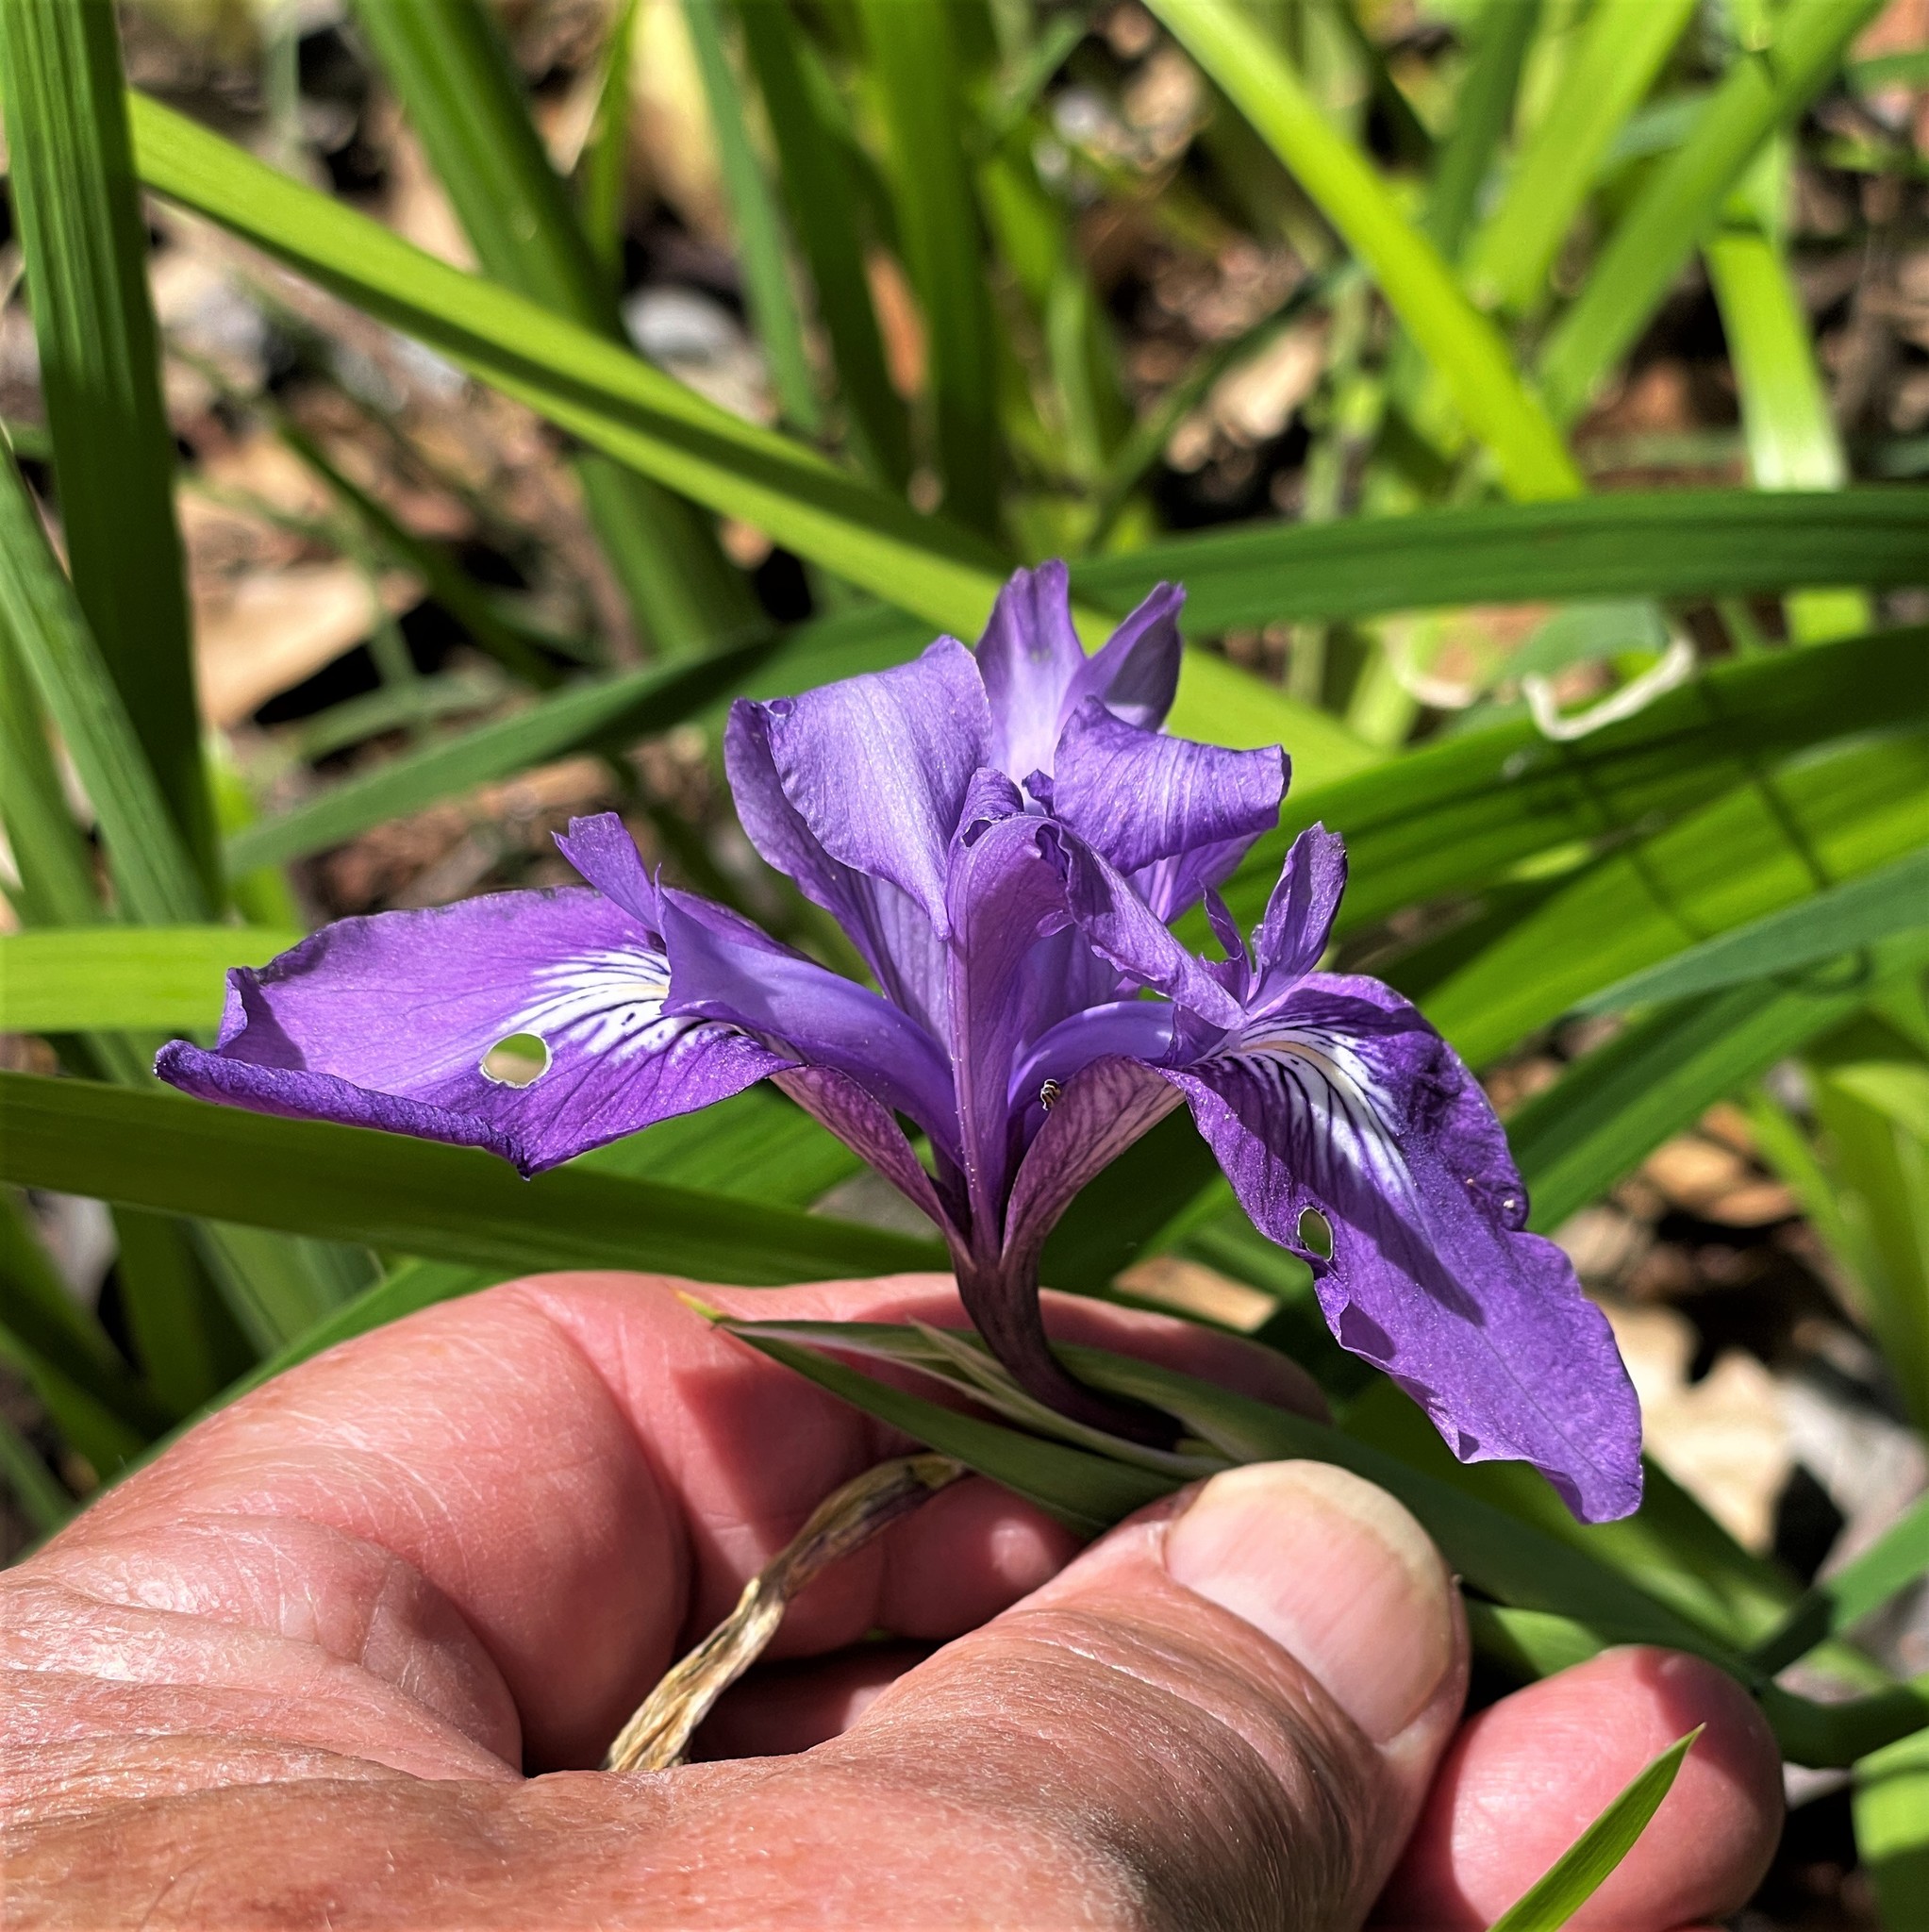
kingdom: Plantae
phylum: Tracheophyta
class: Liliopsida
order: Asparagales
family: Iridaceae
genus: Iris
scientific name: Iris douglasiana
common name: Marin iris
